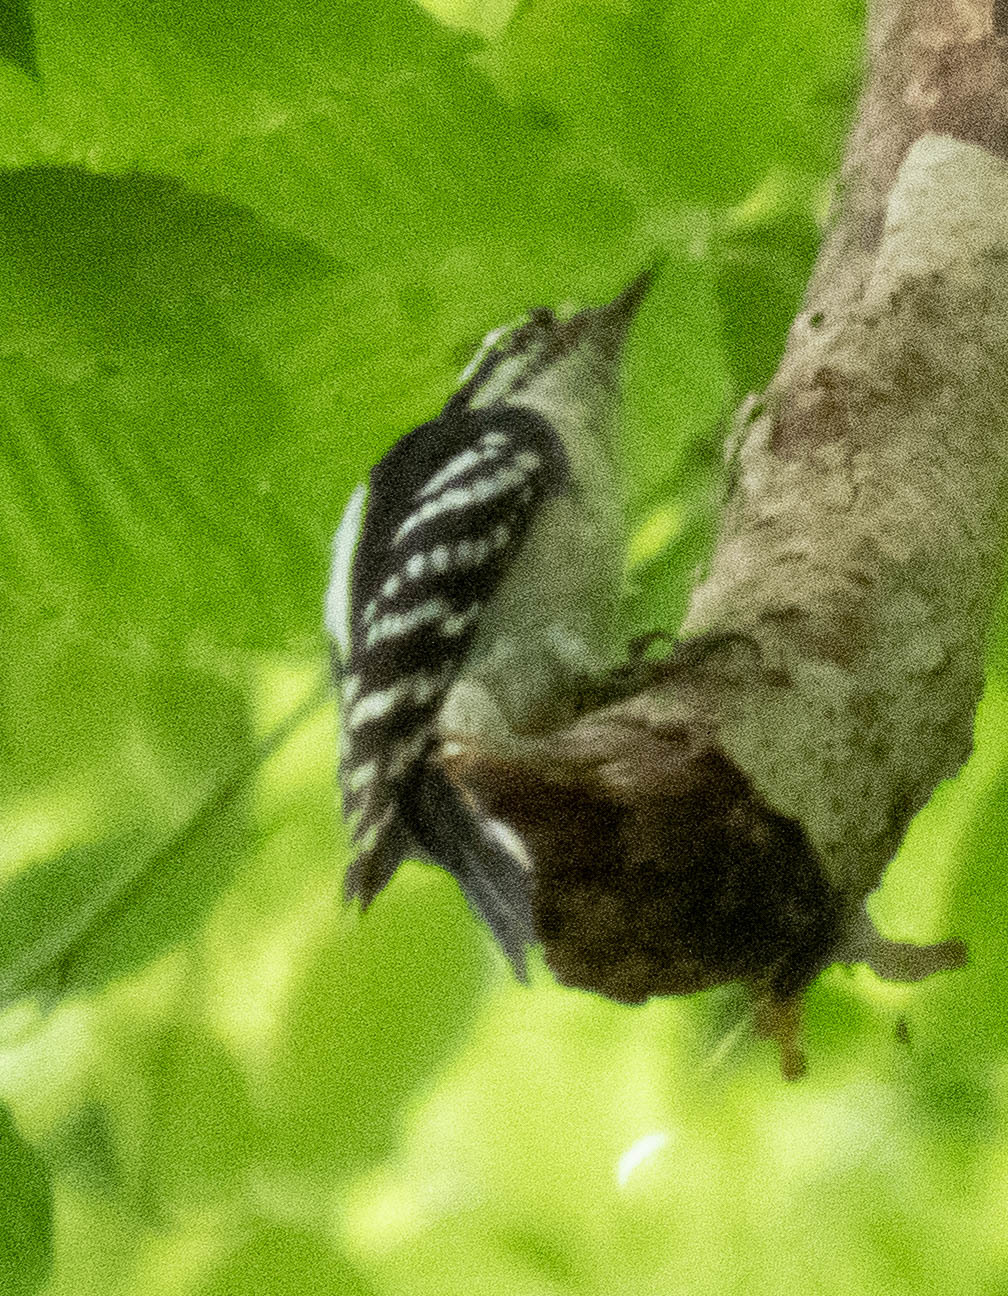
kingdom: Animalia
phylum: Chordata
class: Aves
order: Piciformes
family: Picidae
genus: Dryobates
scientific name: Dryobates pubescens
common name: Downy woodpecker
